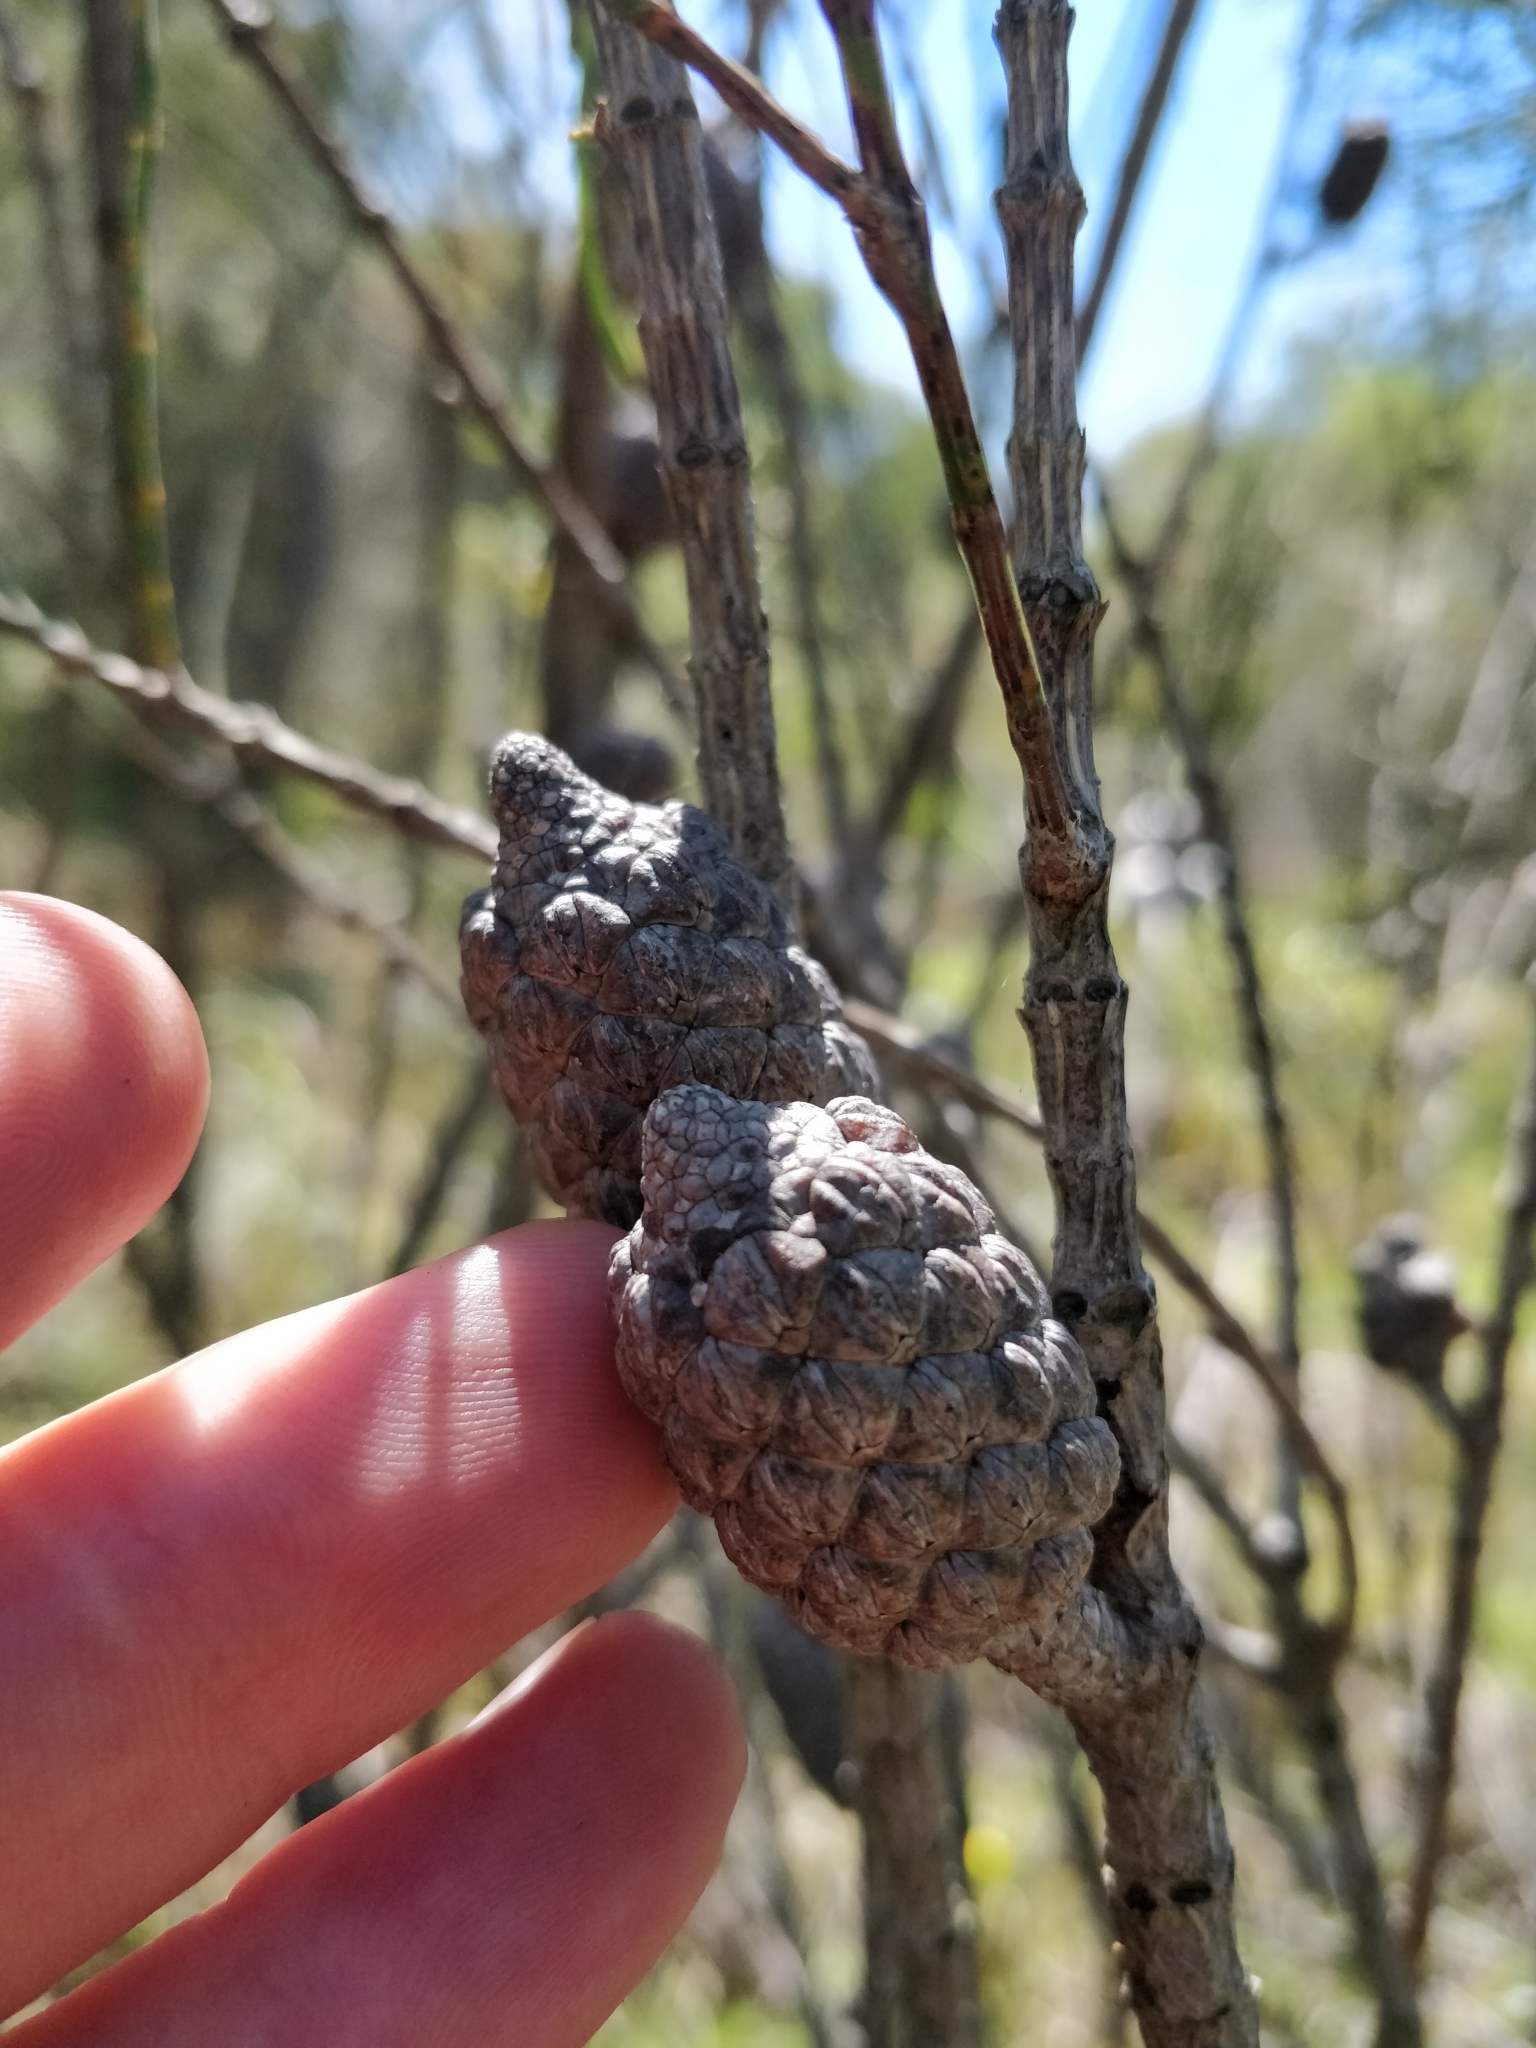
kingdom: Plantae
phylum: Tracheophyta
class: Magnoliopsida
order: Fagales
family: Casuarinaceae
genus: Allocasuarina
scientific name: Allocasuarina distyla
